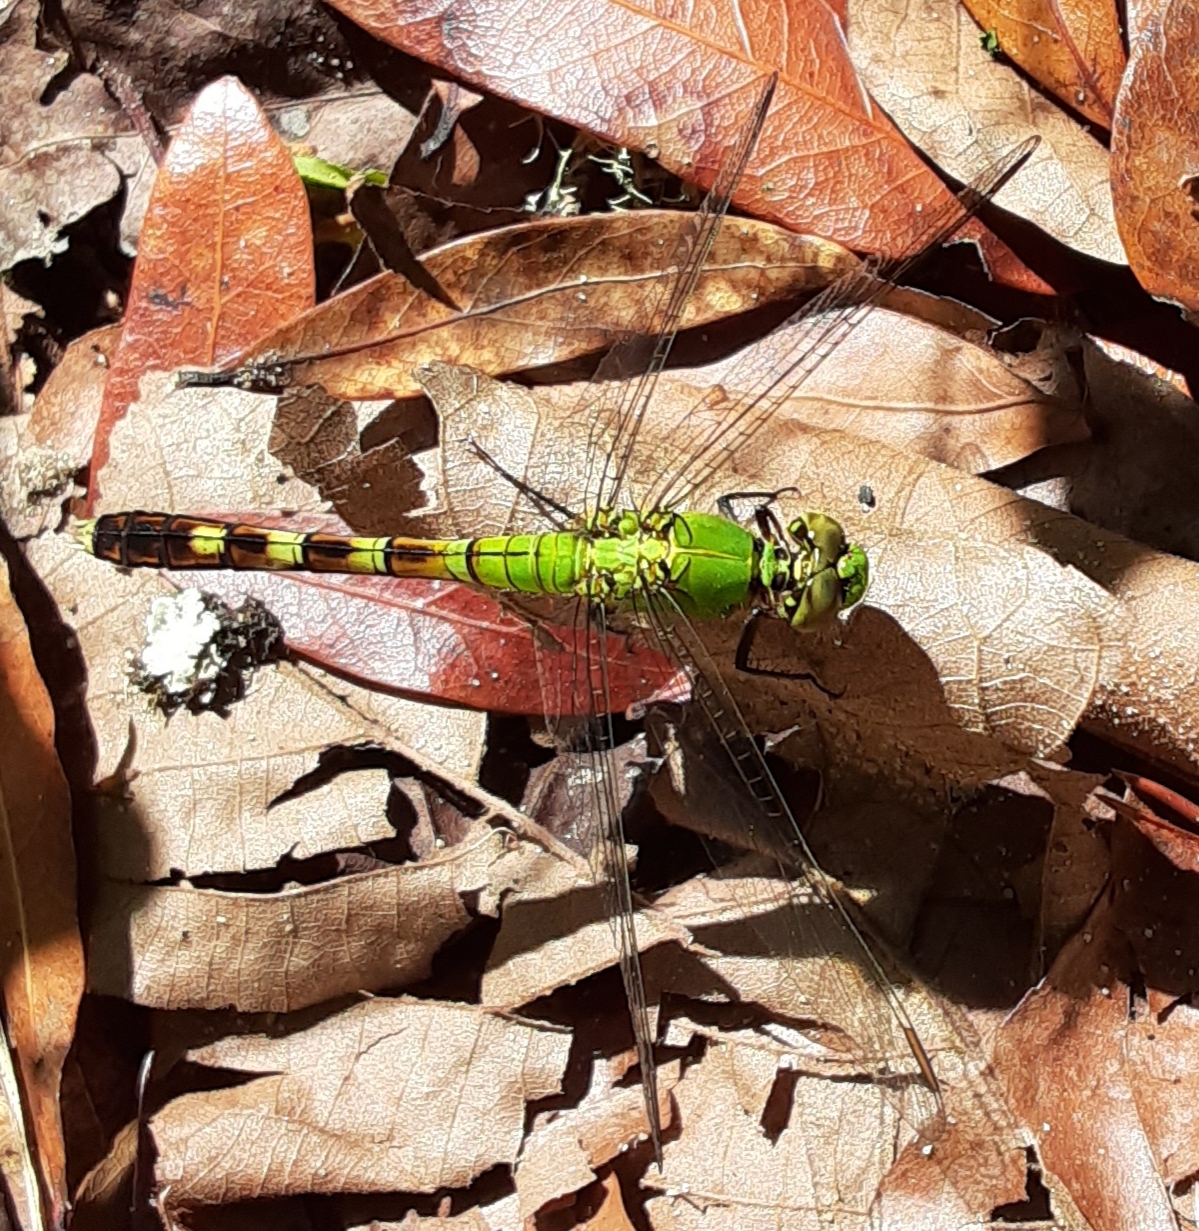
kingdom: Animalia
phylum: Arthropoda
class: Insecta
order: Odonata
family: Libellulidae
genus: Erythemis
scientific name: Erythemis simplicicollis
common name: Eastern pondhawk
